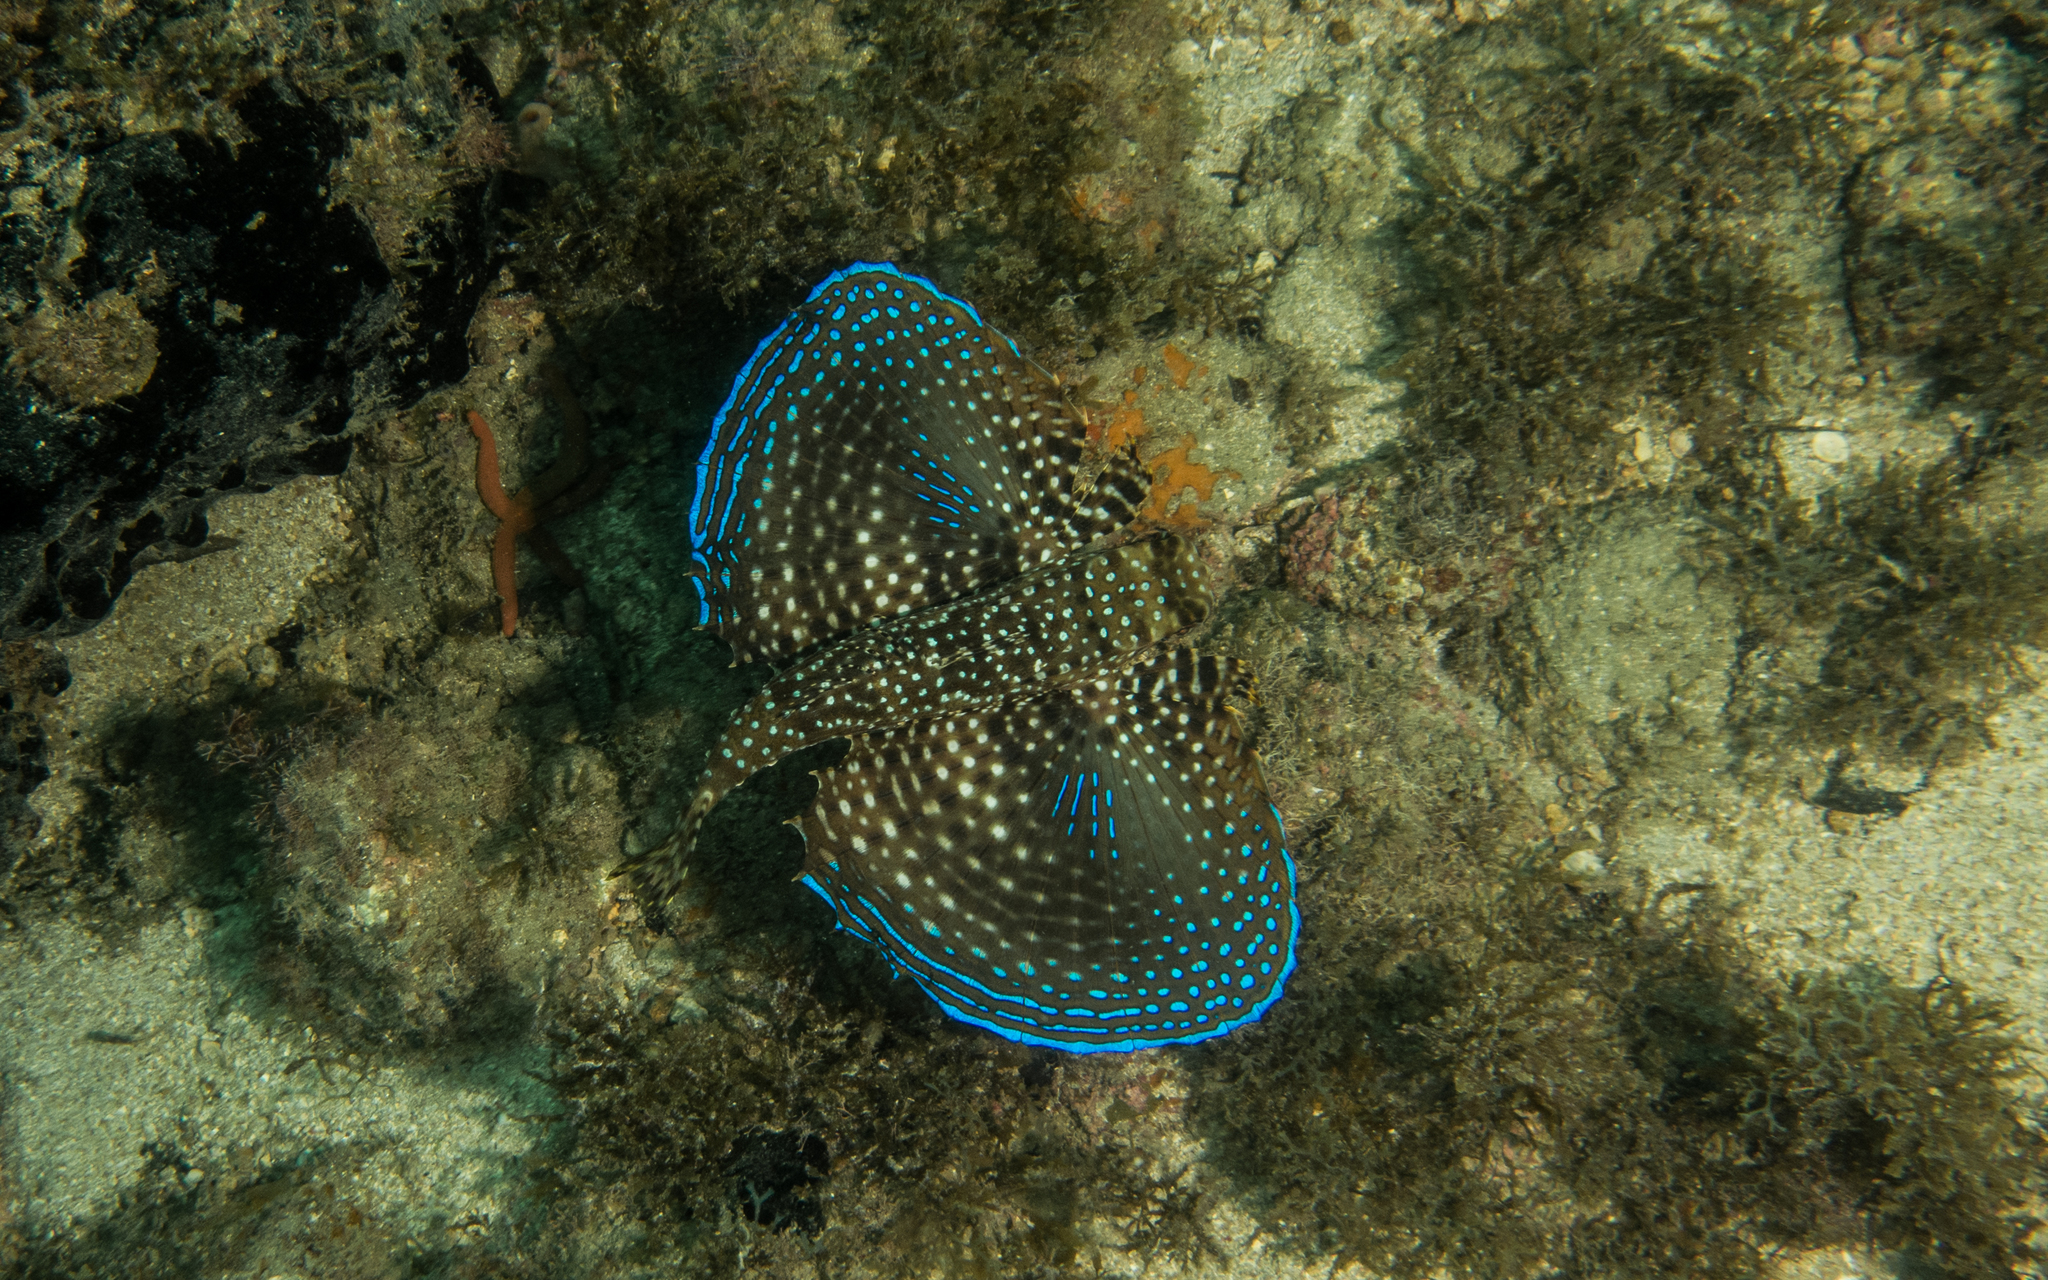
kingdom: Animalia
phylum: Chordata
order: Scorpaeniformes
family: Dactylopteridae
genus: Dactylopterus
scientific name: Dactylopterus volitans
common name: Flying gurnard
